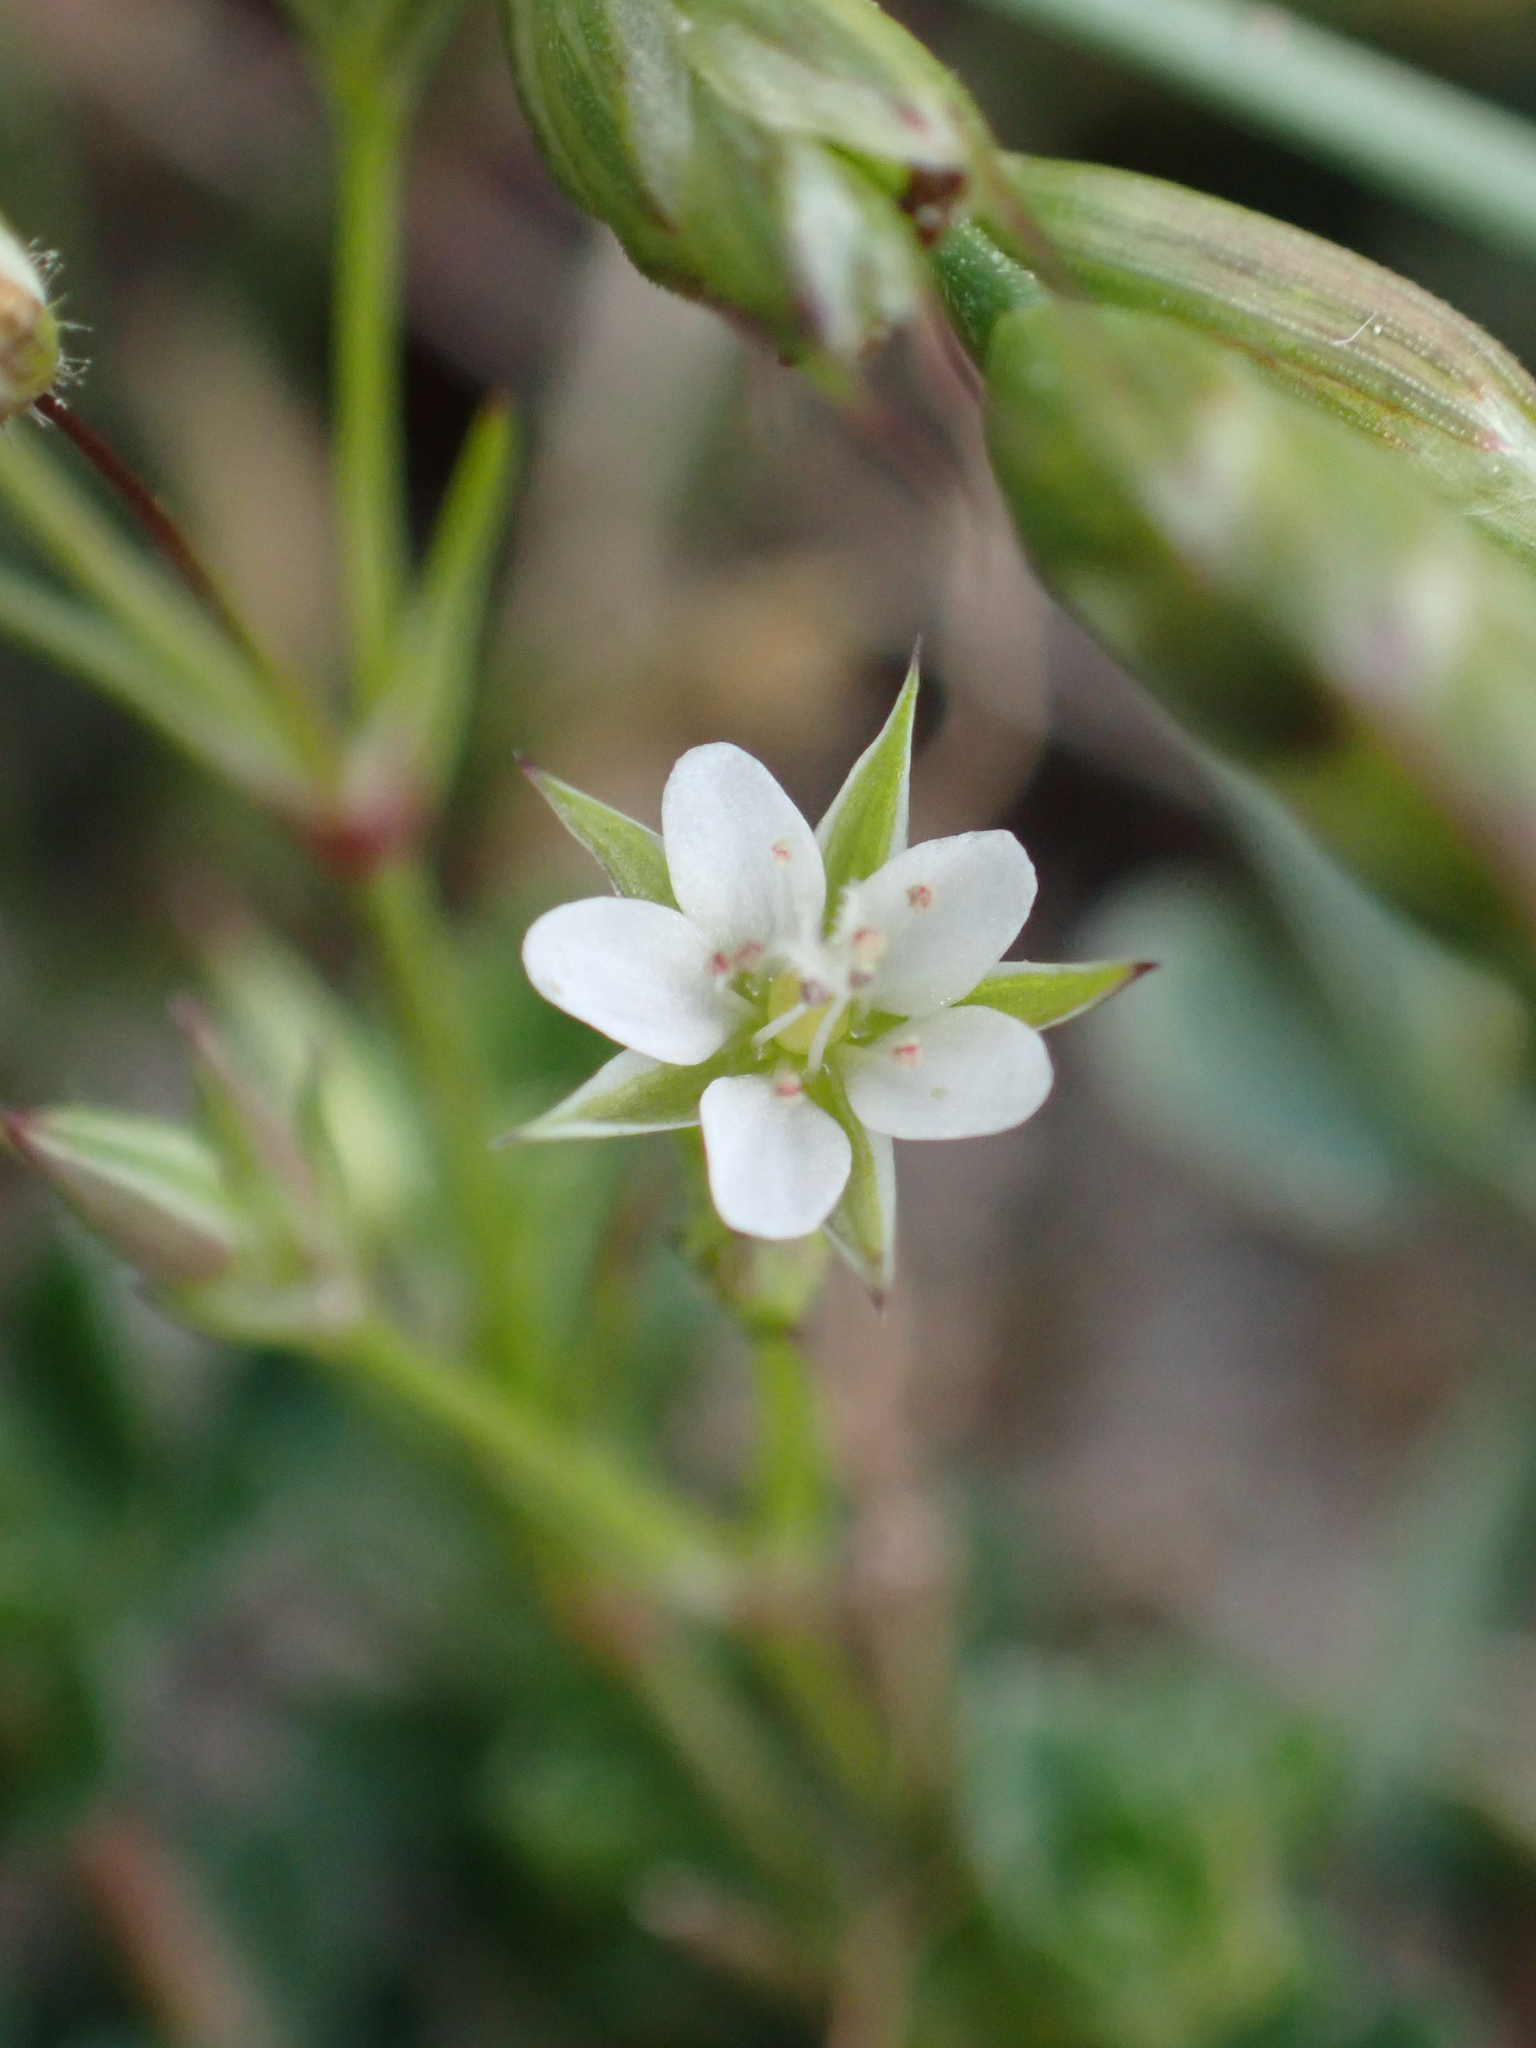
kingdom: Plantae
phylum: Tracheophyta
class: Magnoliopsida
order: Caryophyllales
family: Caryophyllaceae
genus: Arenaria
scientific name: Arenaria serpyllifolia
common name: Thyme-leaved sandwort
